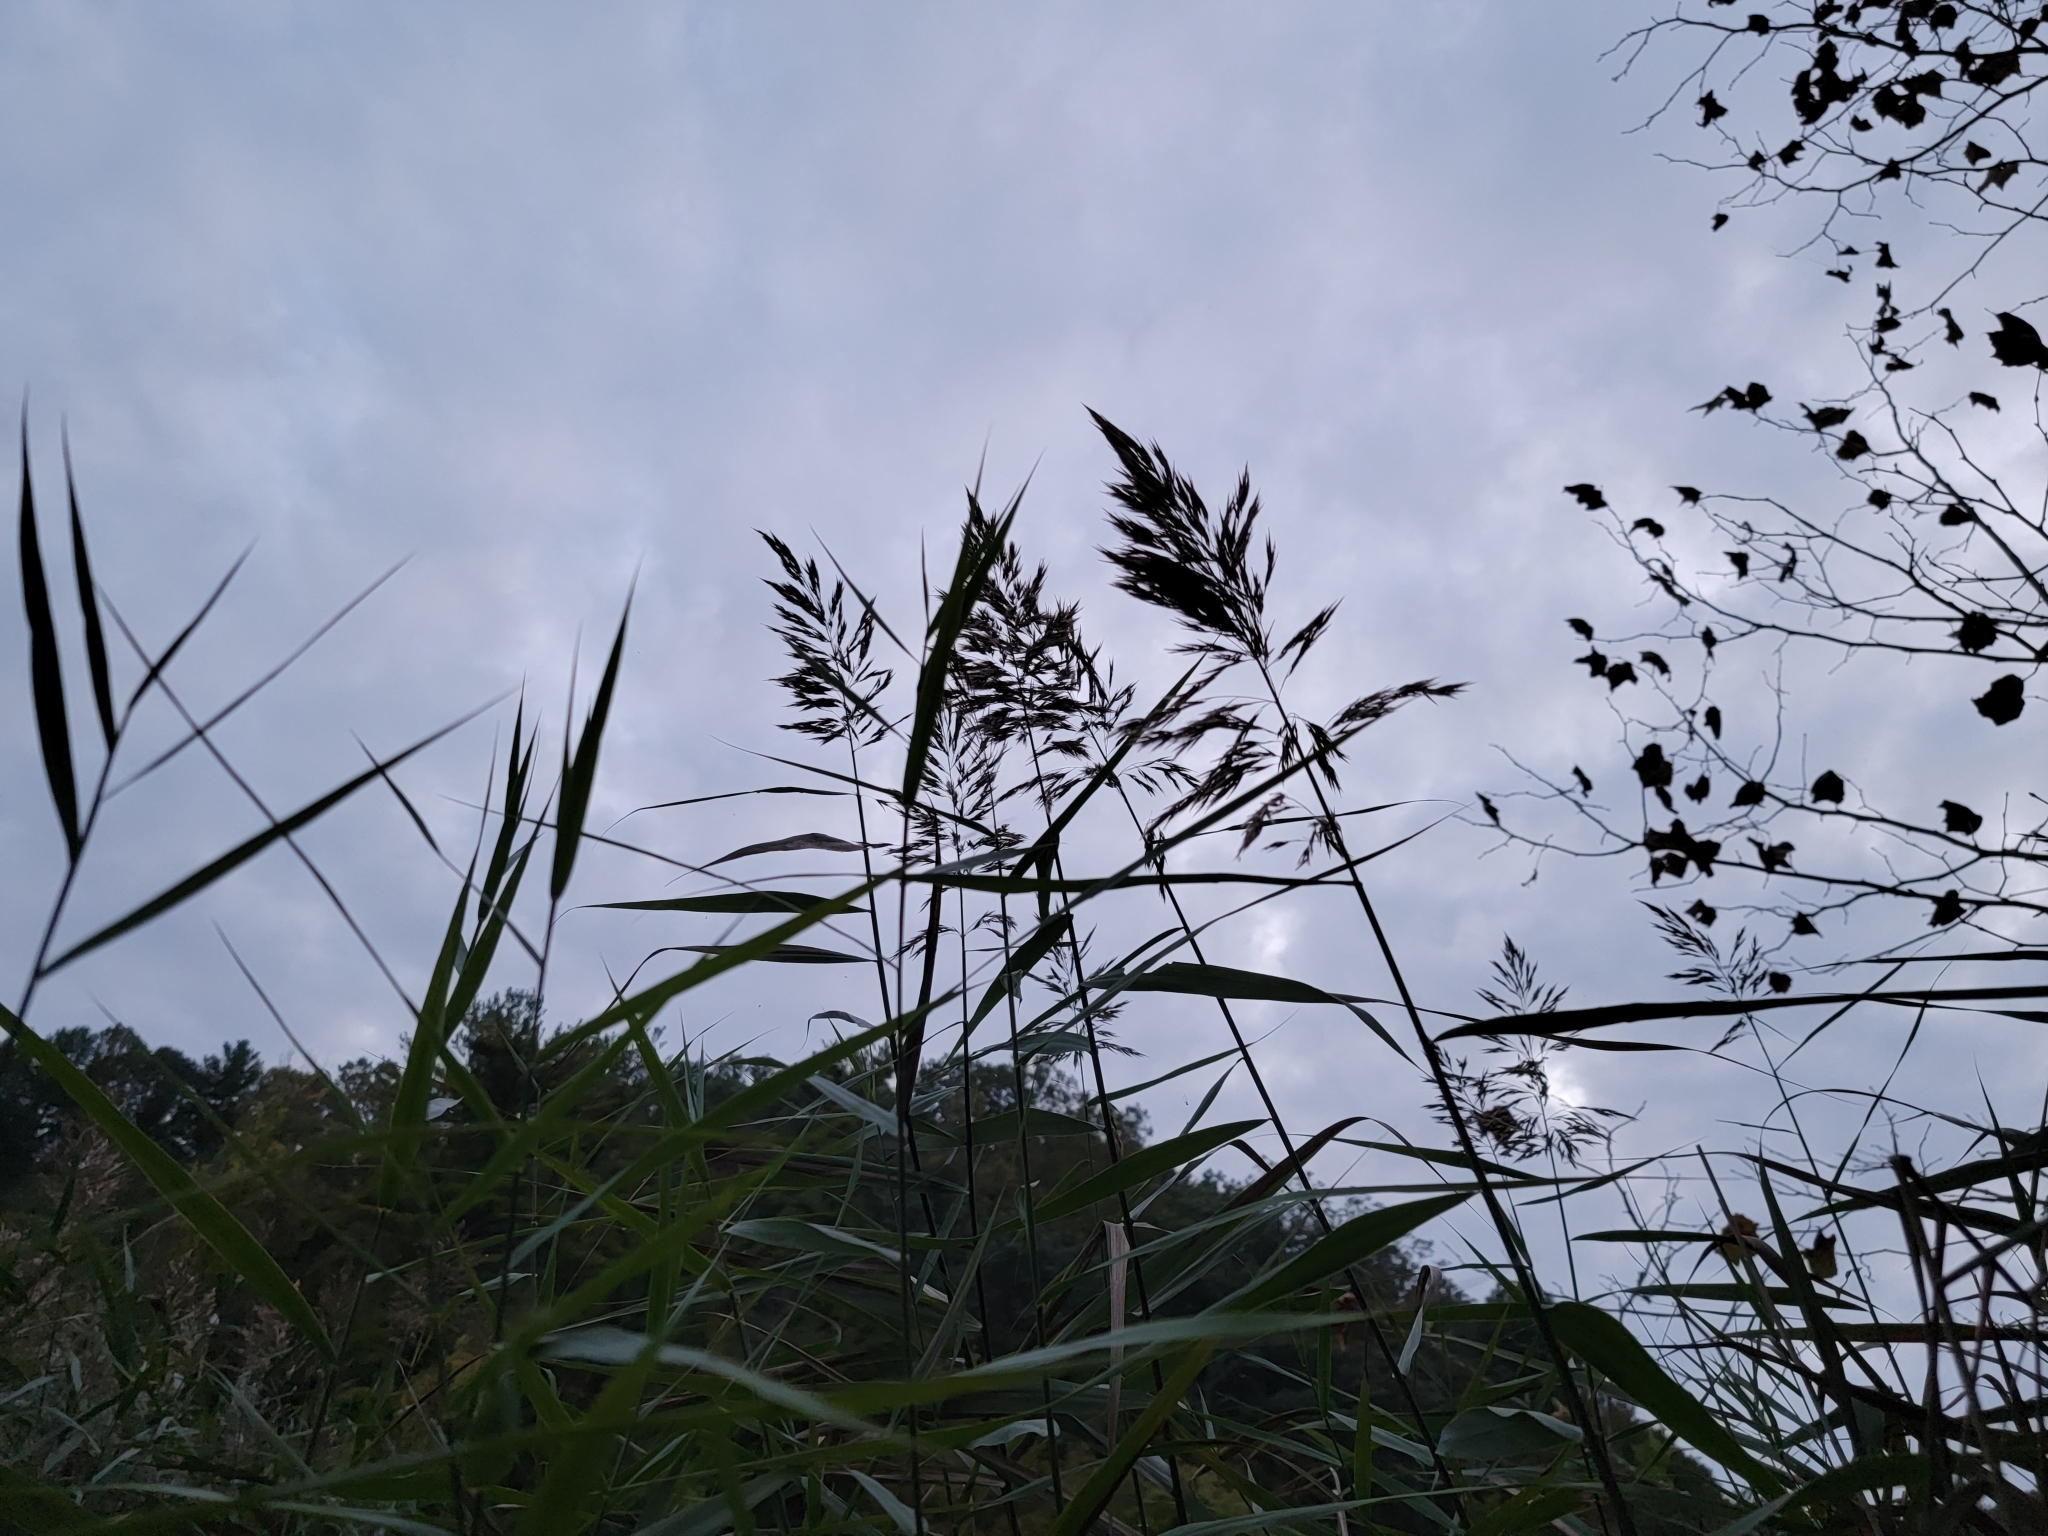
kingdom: Plantae
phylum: Tracheophyta
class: Liliopsida
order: Poales
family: Poaceae
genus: Phragmites
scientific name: Phragmites australis
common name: Common reed
